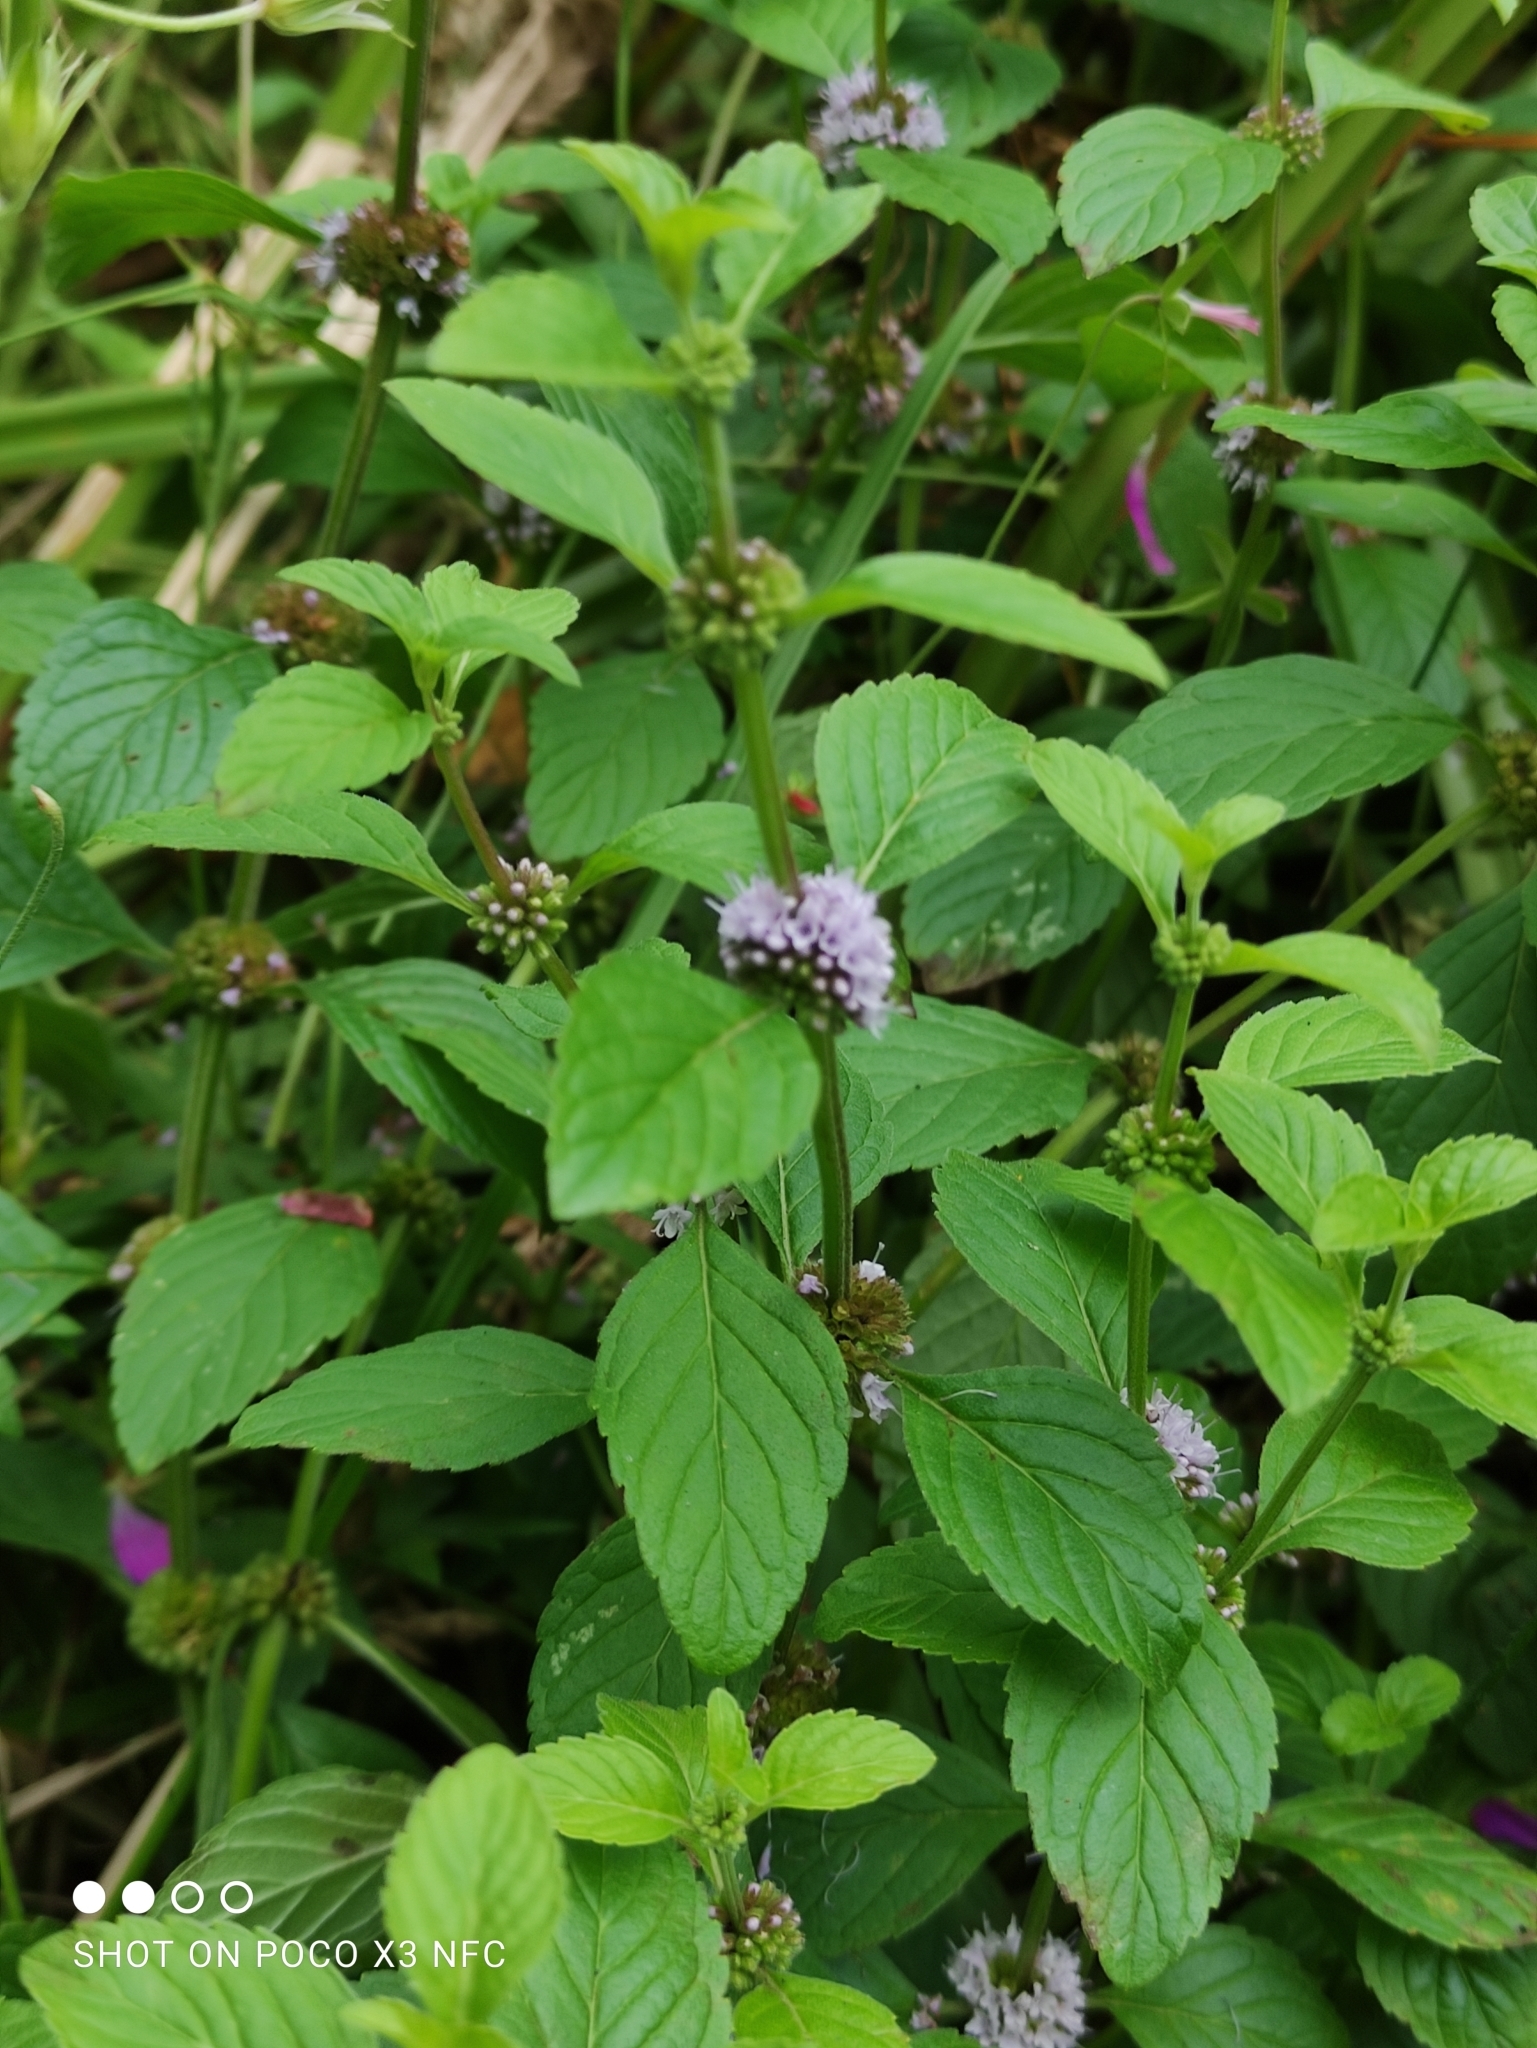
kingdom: Plantae
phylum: Tracheophyta
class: Magnoliopsida
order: Lamiales
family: Lamiaceae
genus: Mentha
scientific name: Mentha arvensis
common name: Corn mint
